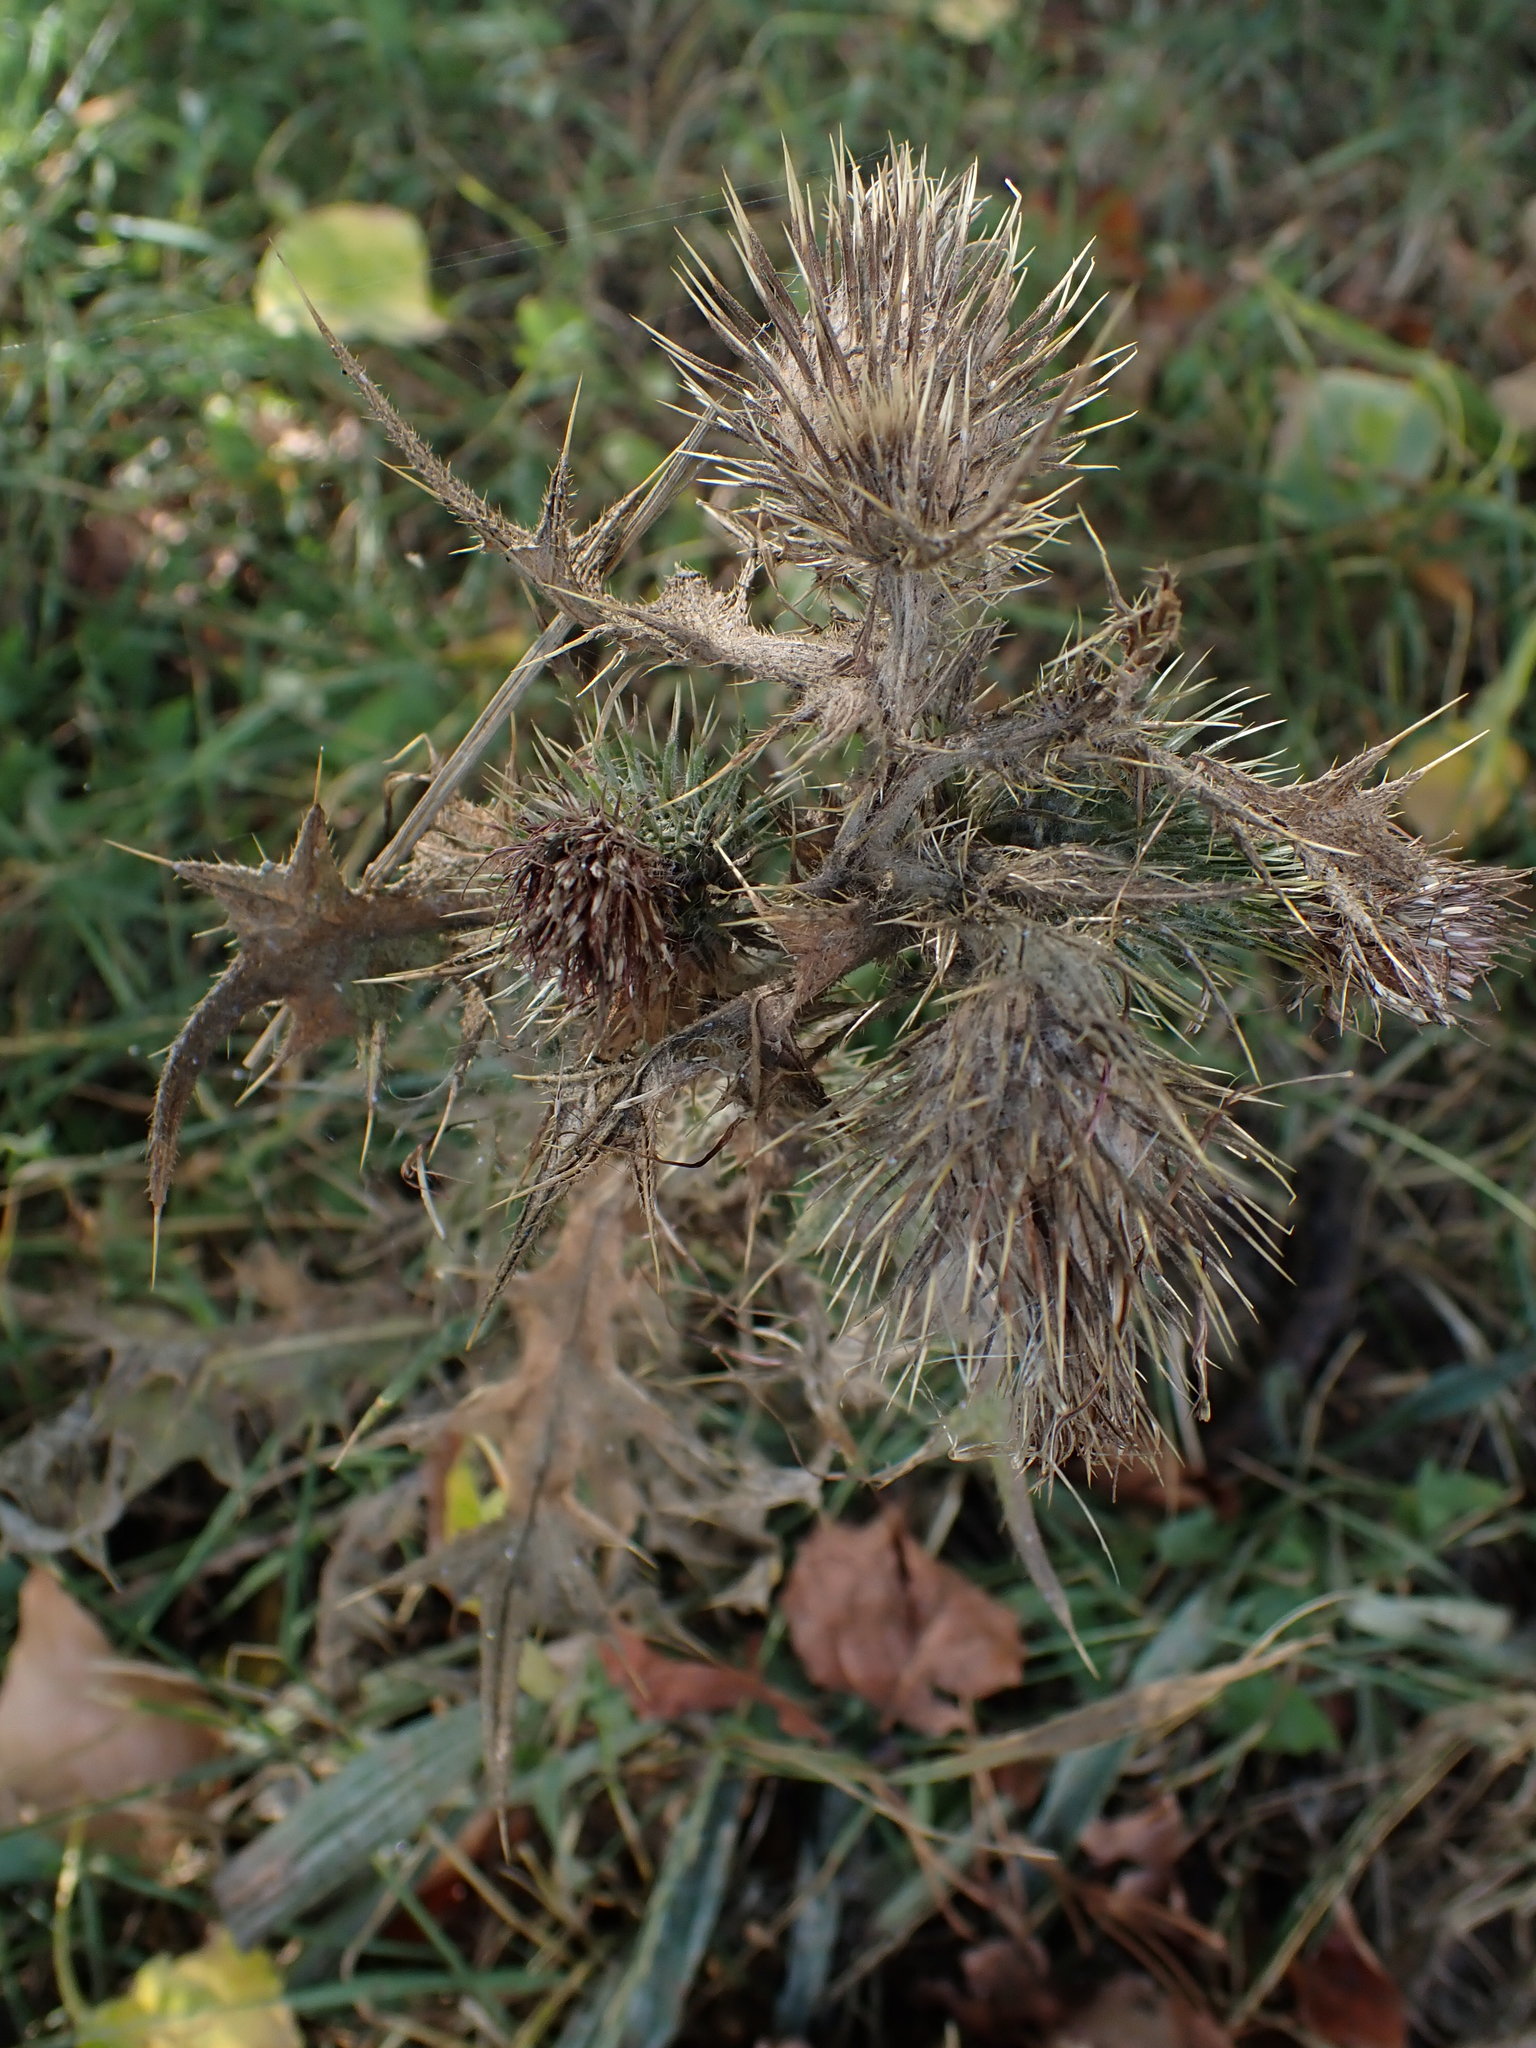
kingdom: Plantae
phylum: Tracheophyta
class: Magnoliopsida
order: Asterales
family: Asteraceae
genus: Cirsium
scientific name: Cirsium vulgare
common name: Bull thistle
